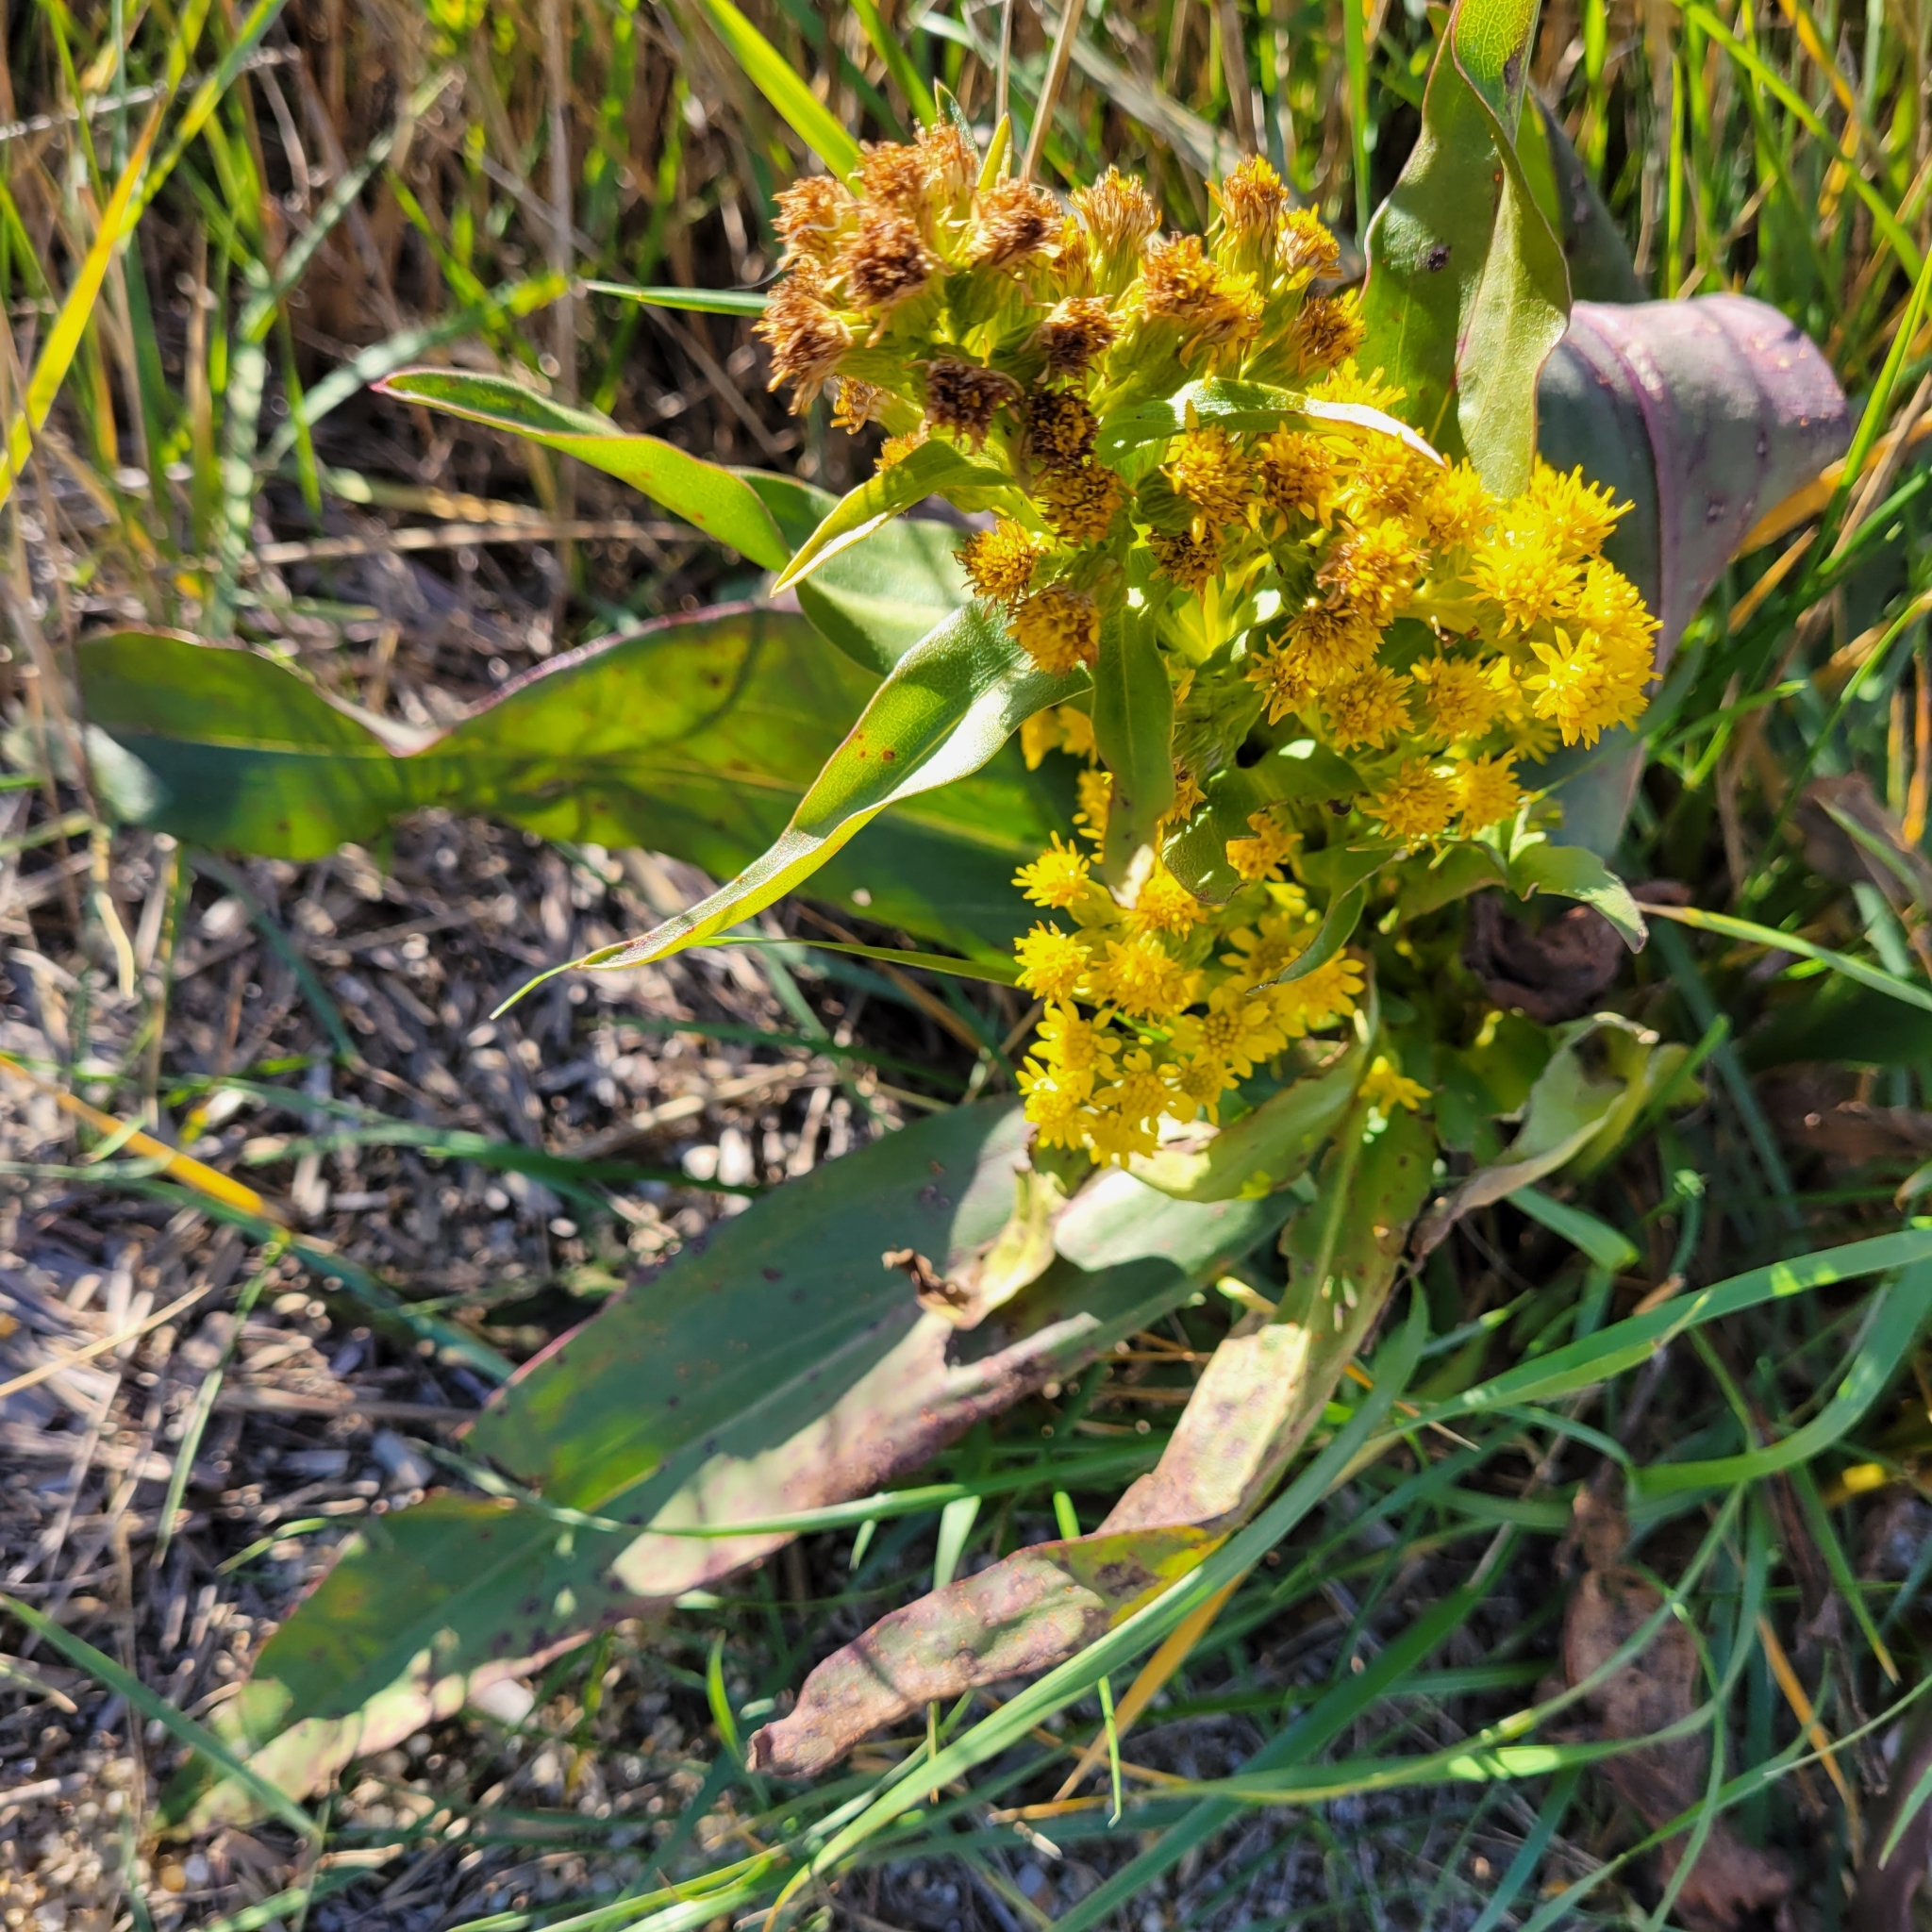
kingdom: Plantae
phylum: Tracheophyta
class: Magnoliopsida
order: Asterales
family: Asteraceae
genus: Solidago
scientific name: Solidago sempervirens
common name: Salt-marsh goldenrod
